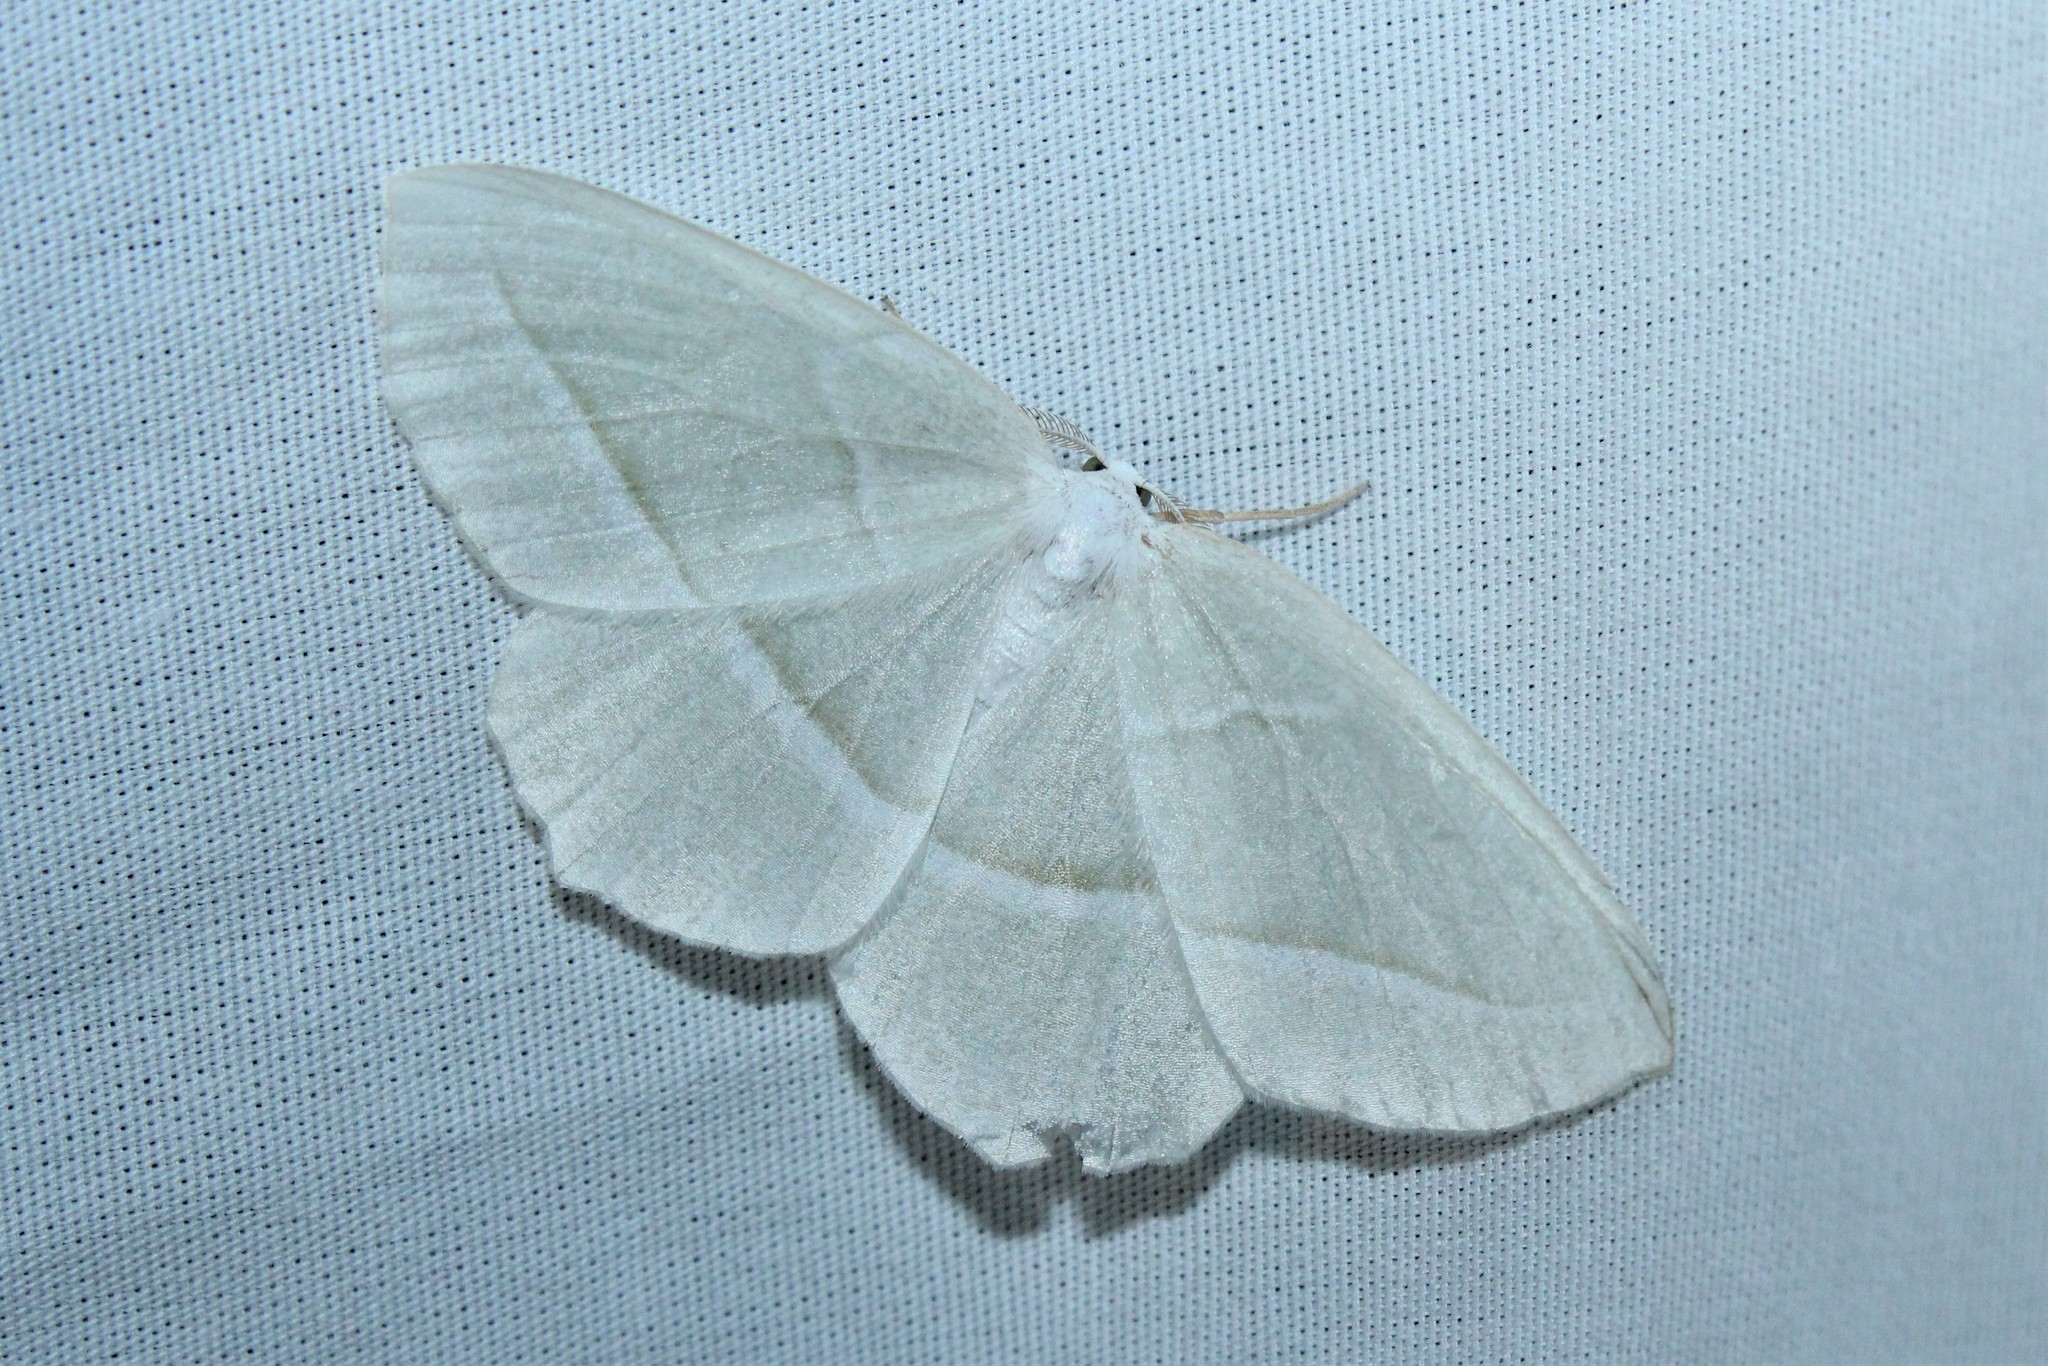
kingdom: Animalia
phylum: Arthropoda
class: Insecta
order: Lepidoptera
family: Geometridae
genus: Campaea
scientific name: Campaea perlata
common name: Fringed looper
